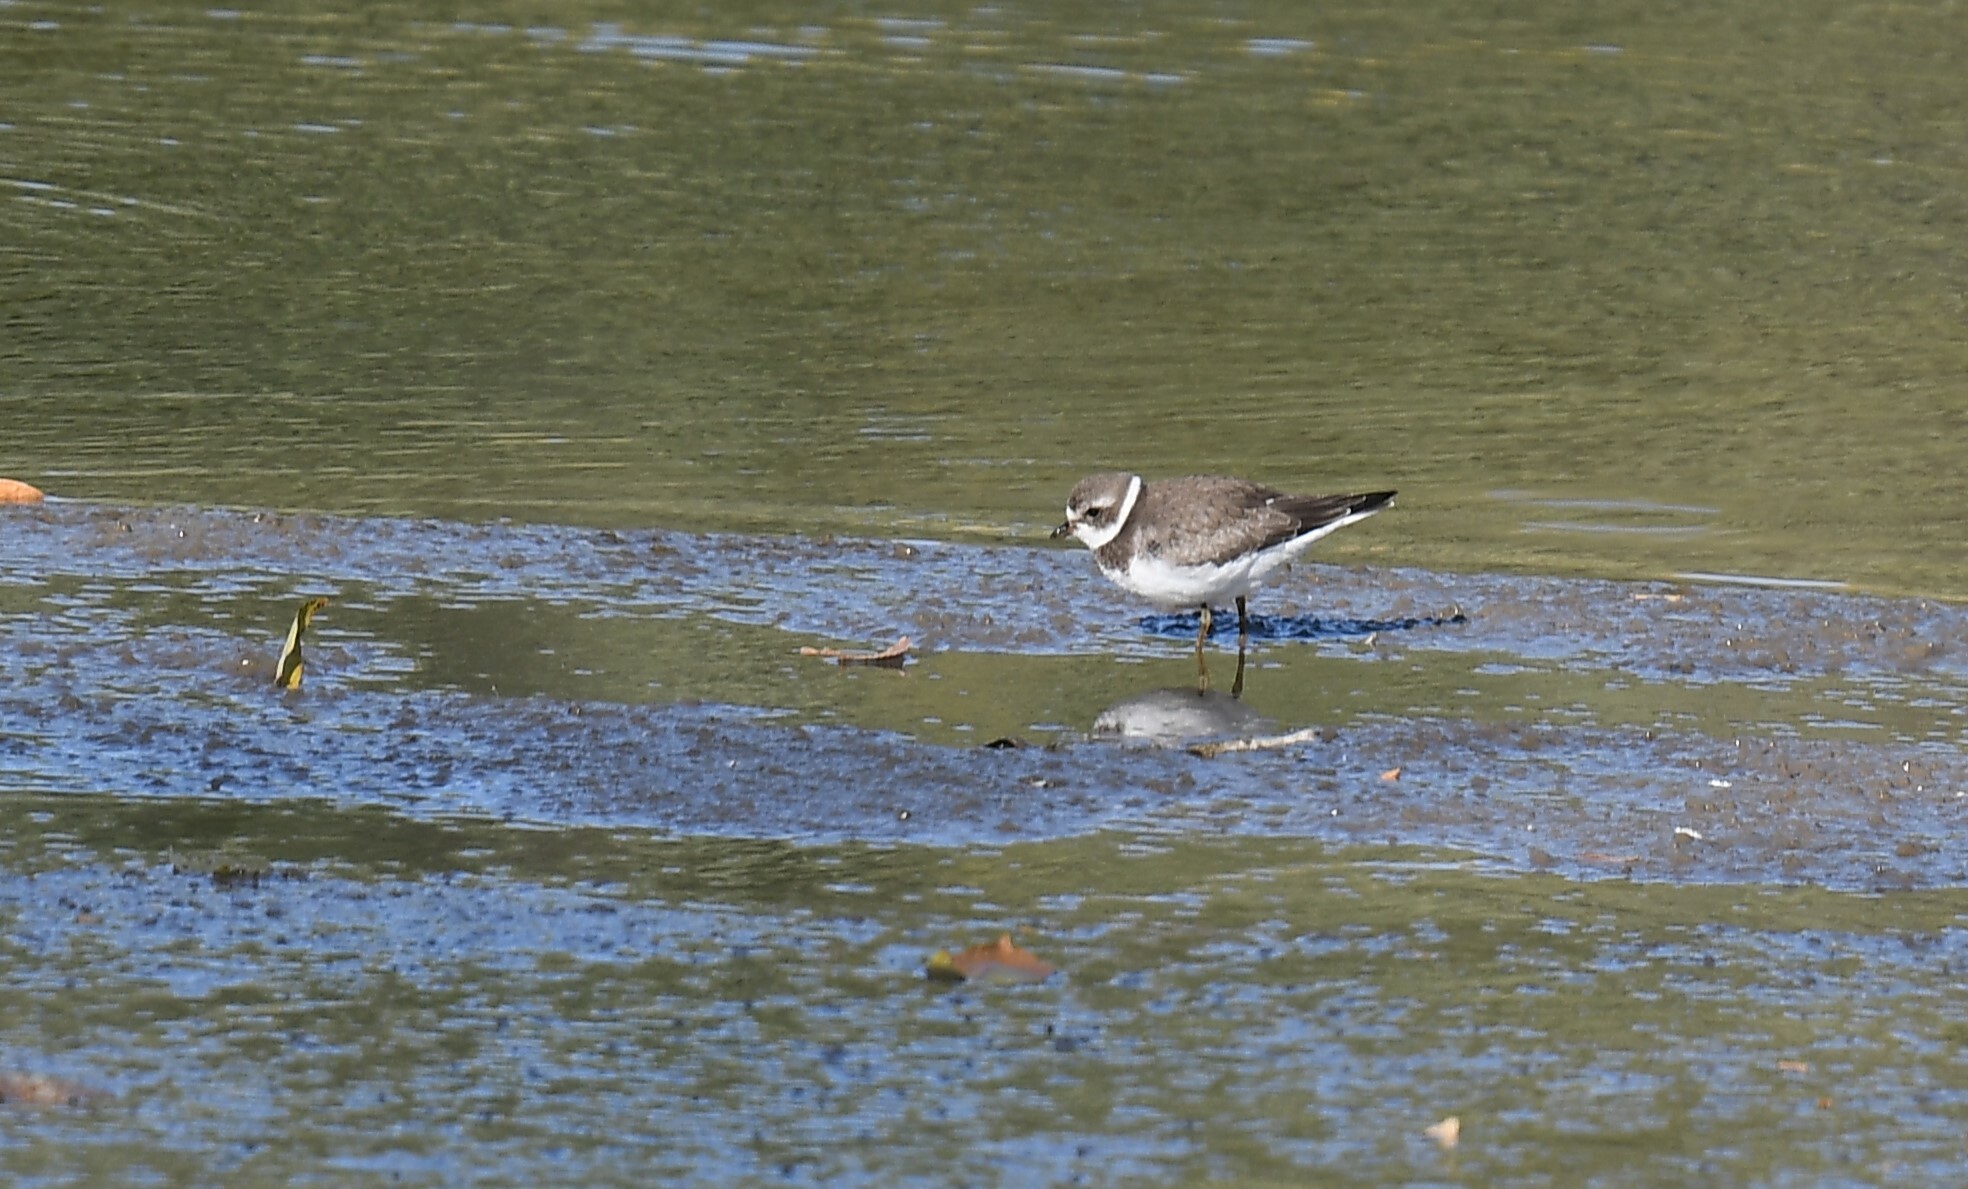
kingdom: Animalia
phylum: Chordata
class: Aves
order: Charadriiformes
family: Charadriidae
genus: Charadrius
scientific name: Charadrius semipalmatus
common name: Semipalmated plover
